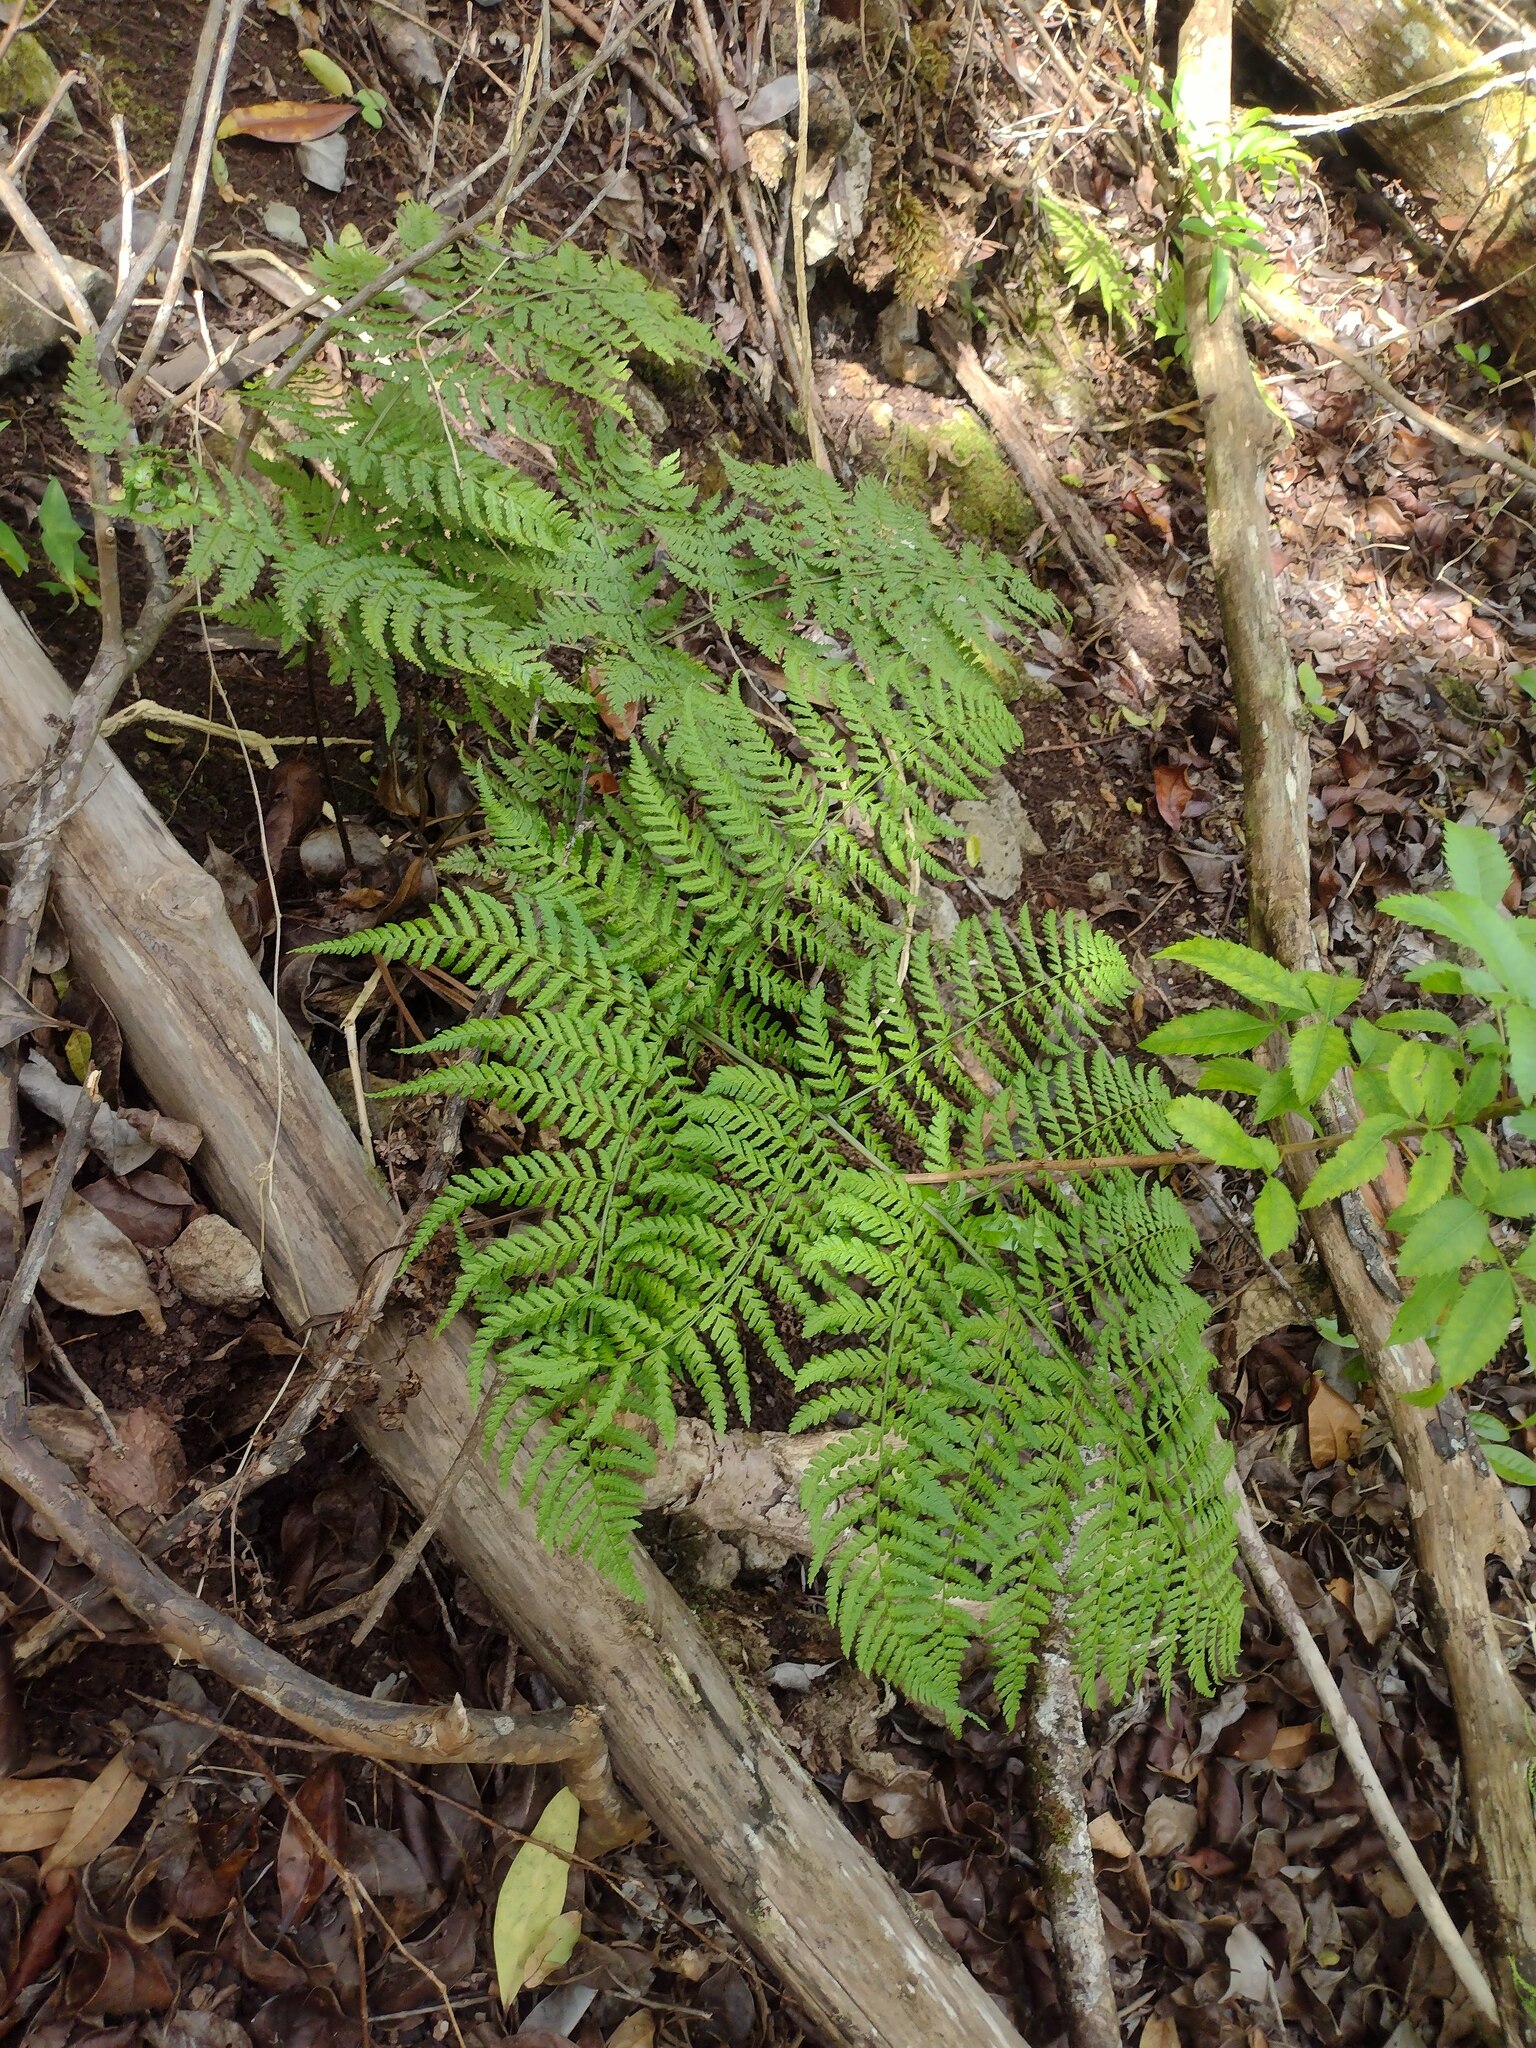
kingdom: Plantae
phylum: Tracheophyta
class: Polypodiopsida
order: Polypodiales
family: Dryopteridaceae
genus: Dryopteris
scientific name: Dryopteris sandwicensis
